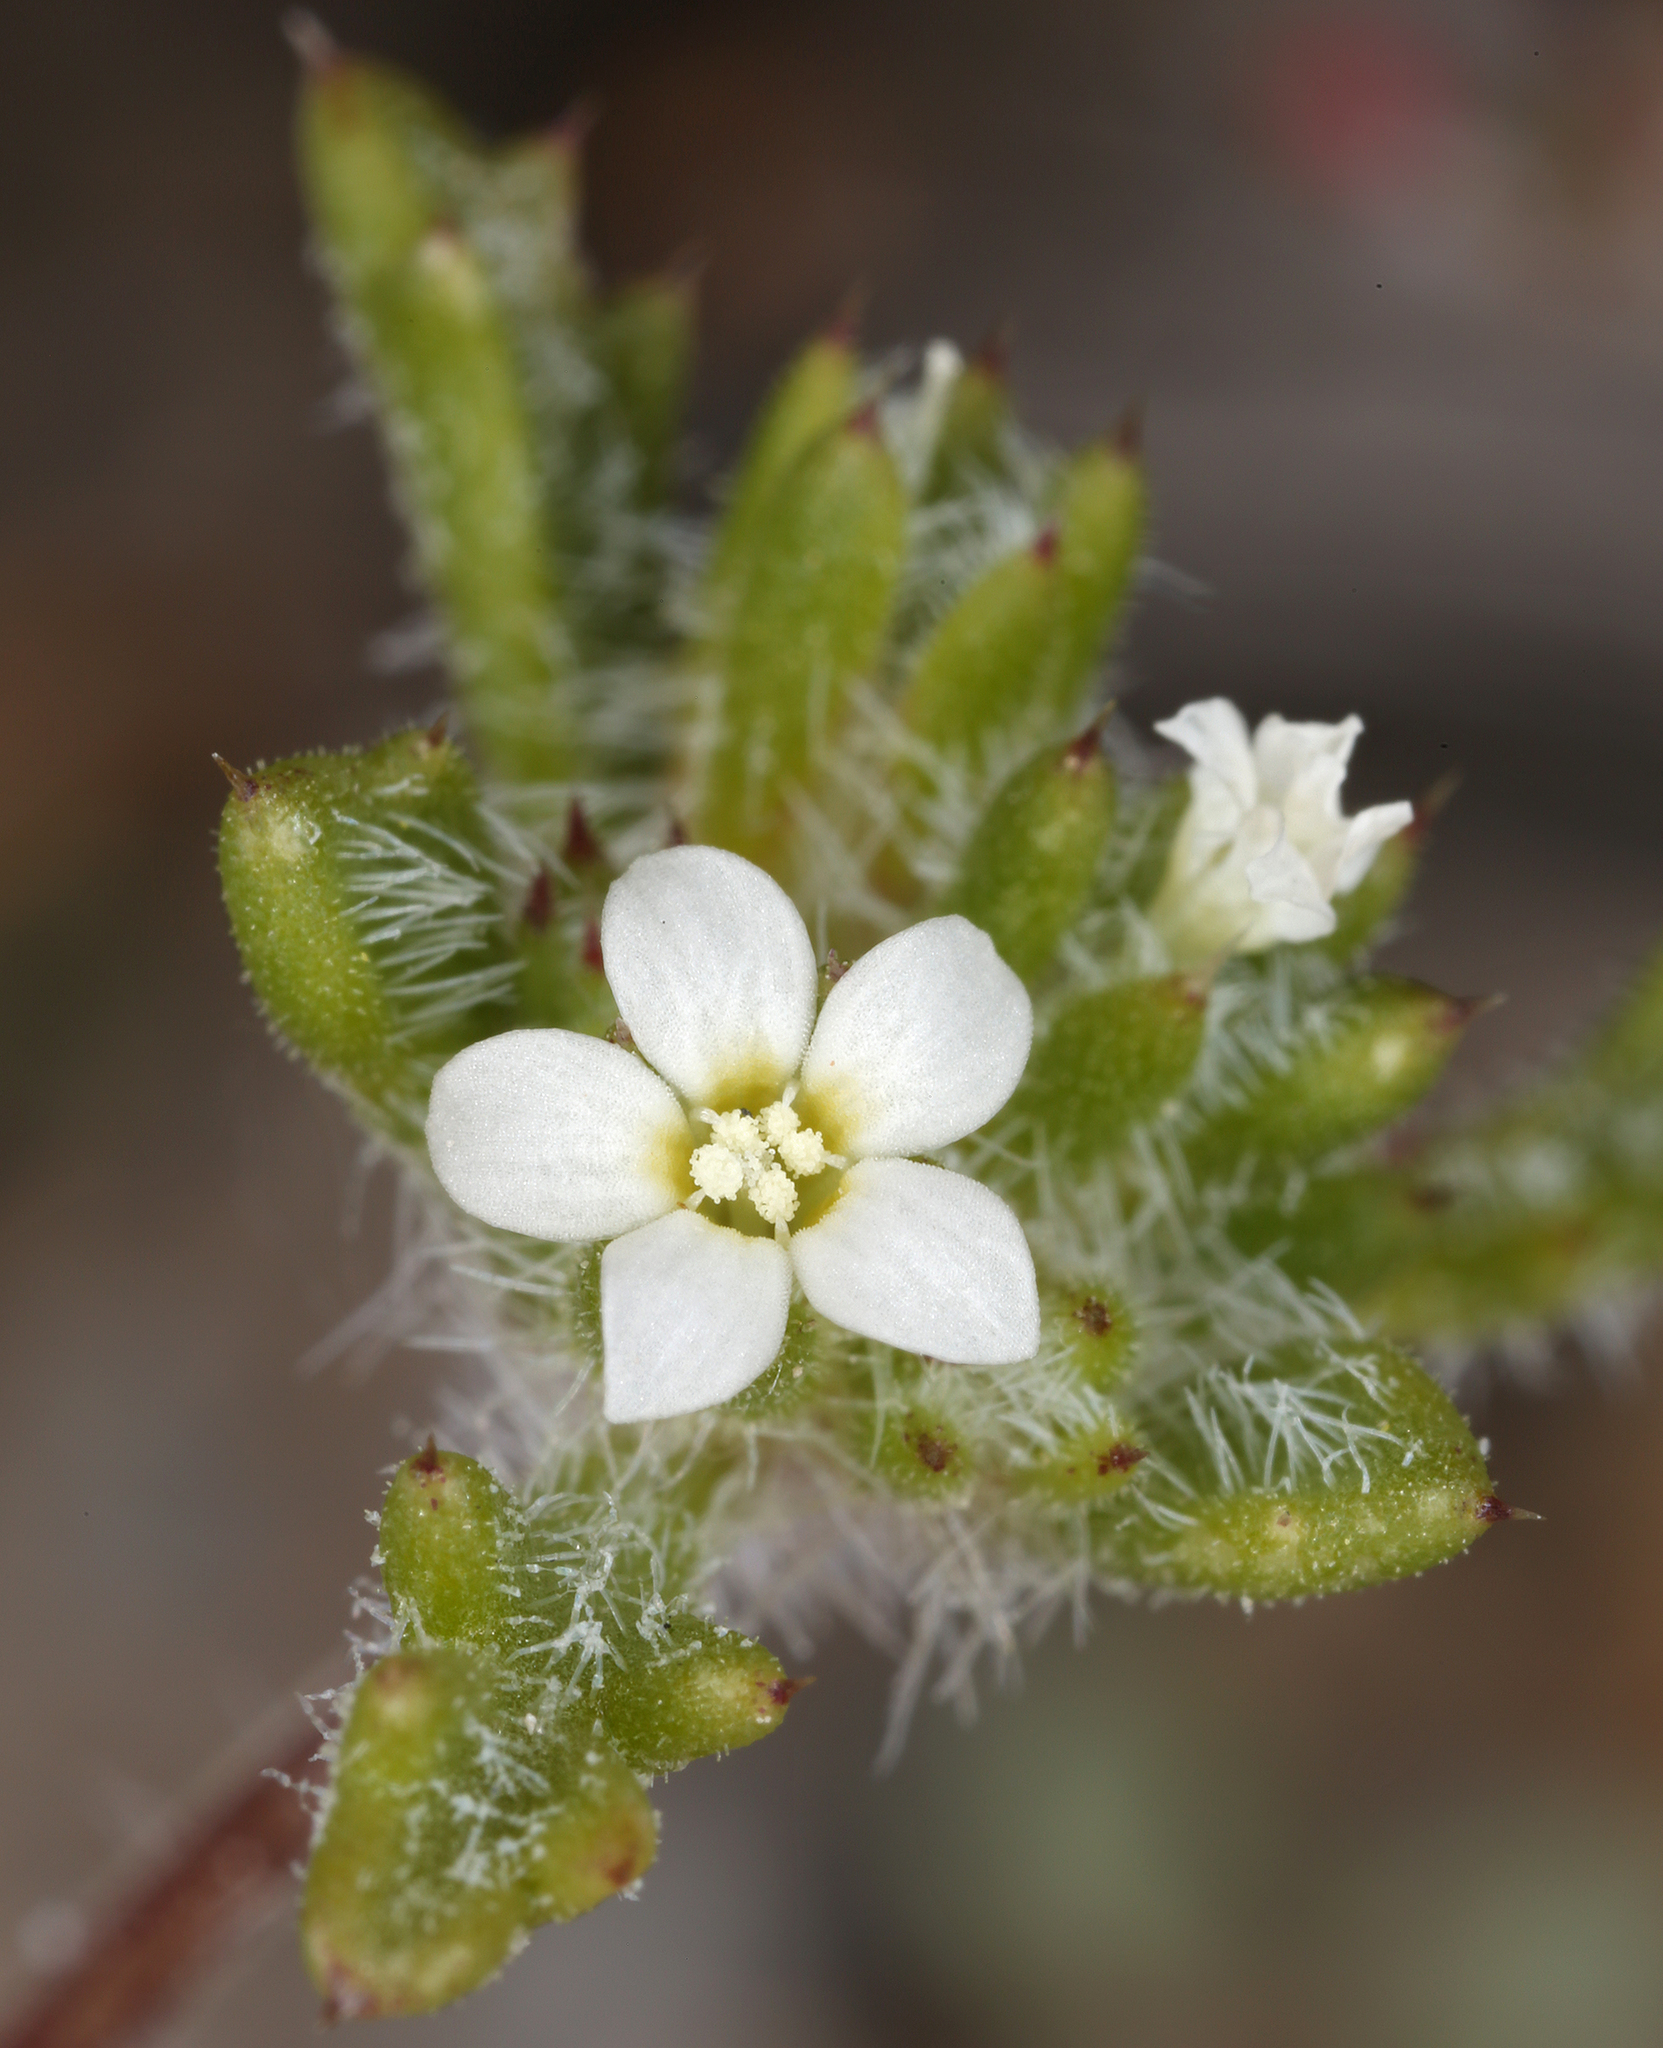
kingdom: Plantae
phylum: Tracheophyta
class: Magnoliopsida
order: Ericales
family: Polemoniaceae
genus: Ipomopsis
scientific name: Ipomopsis polycladon
